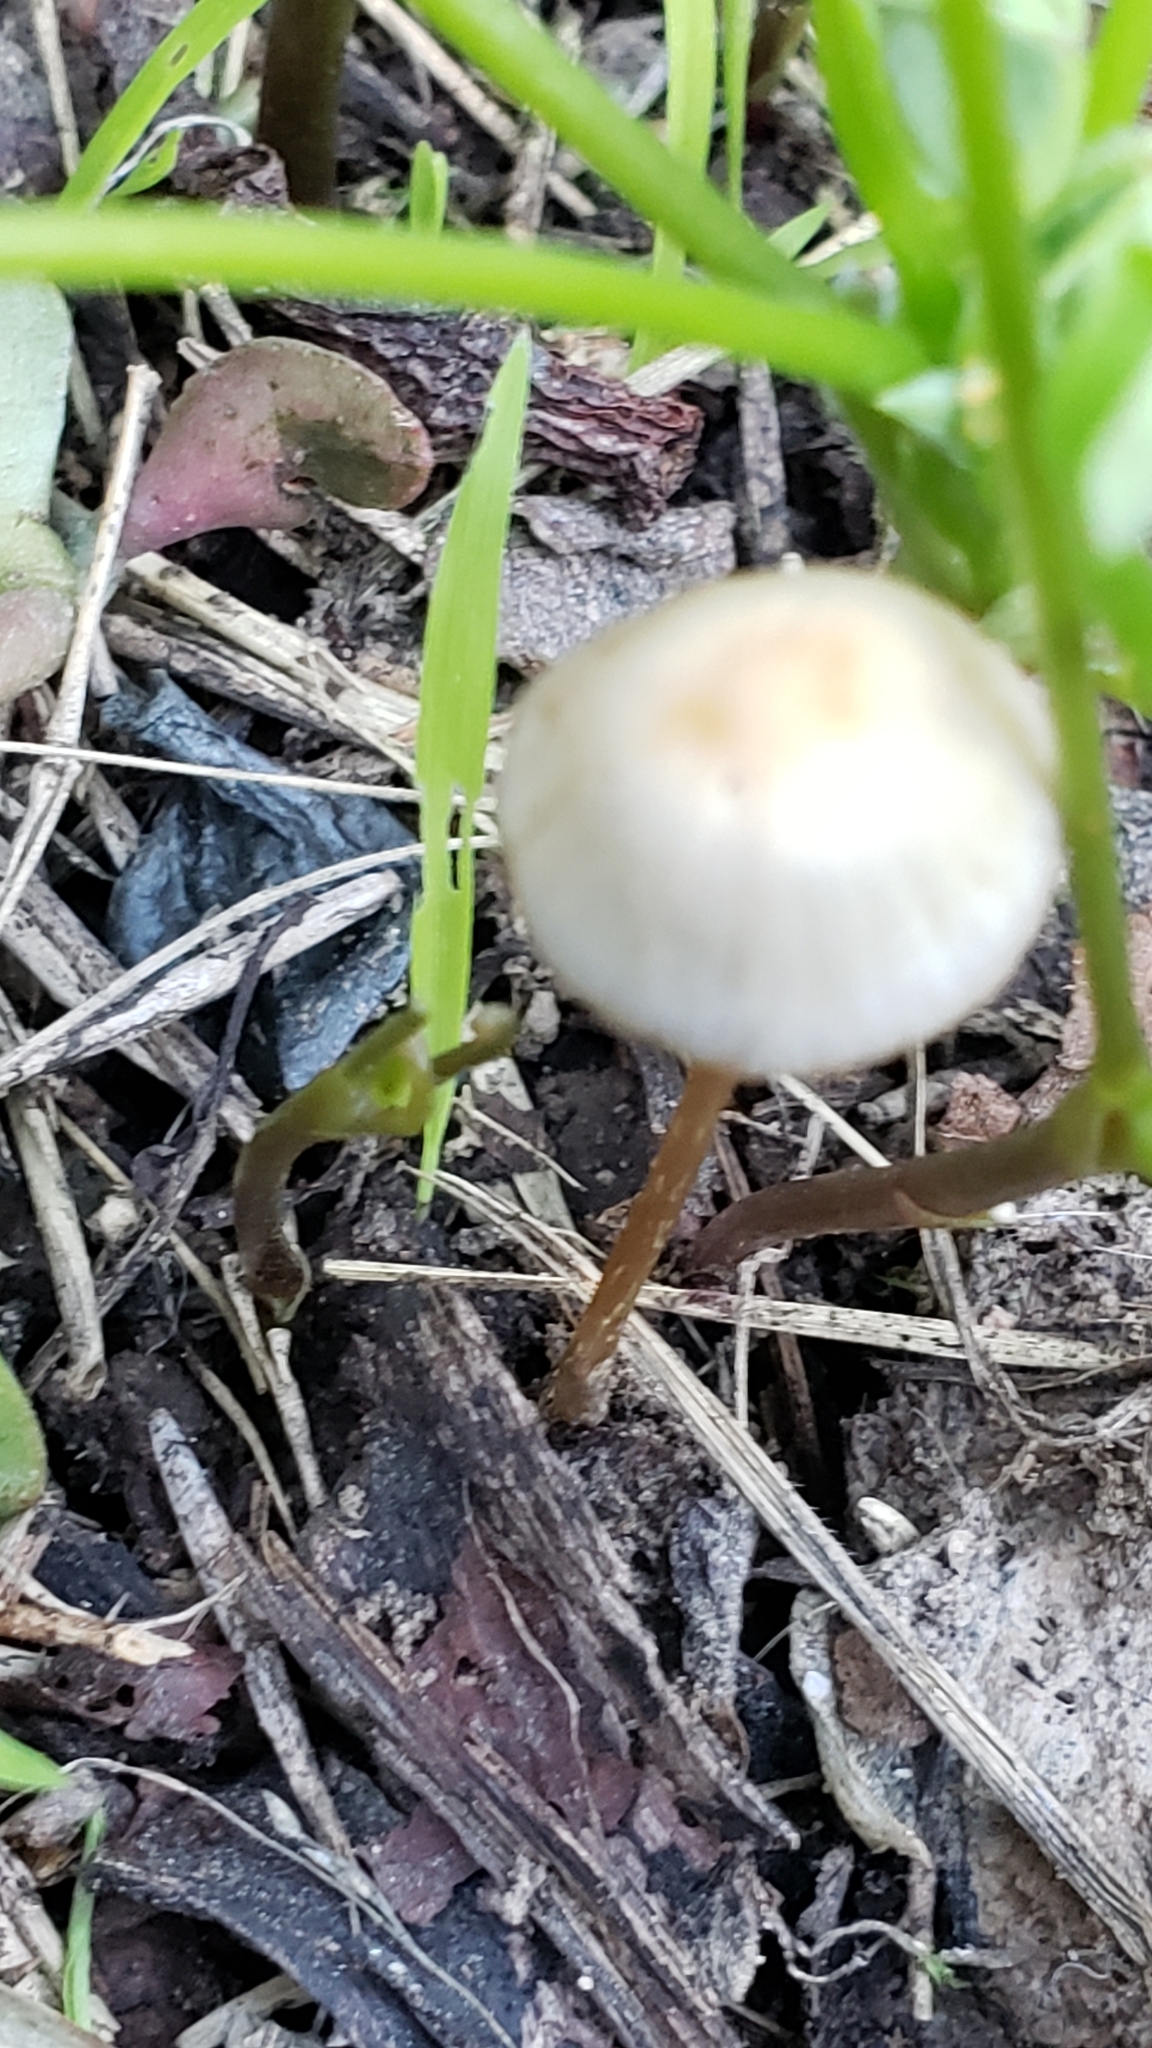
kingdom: Fungi
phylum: Basidiomycota
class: Agaricomycetes
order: Agaricales
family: Psathyrellaceae
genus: Psathyrella
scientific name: Psathyrella corrugis
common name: Red edge brittlestem
